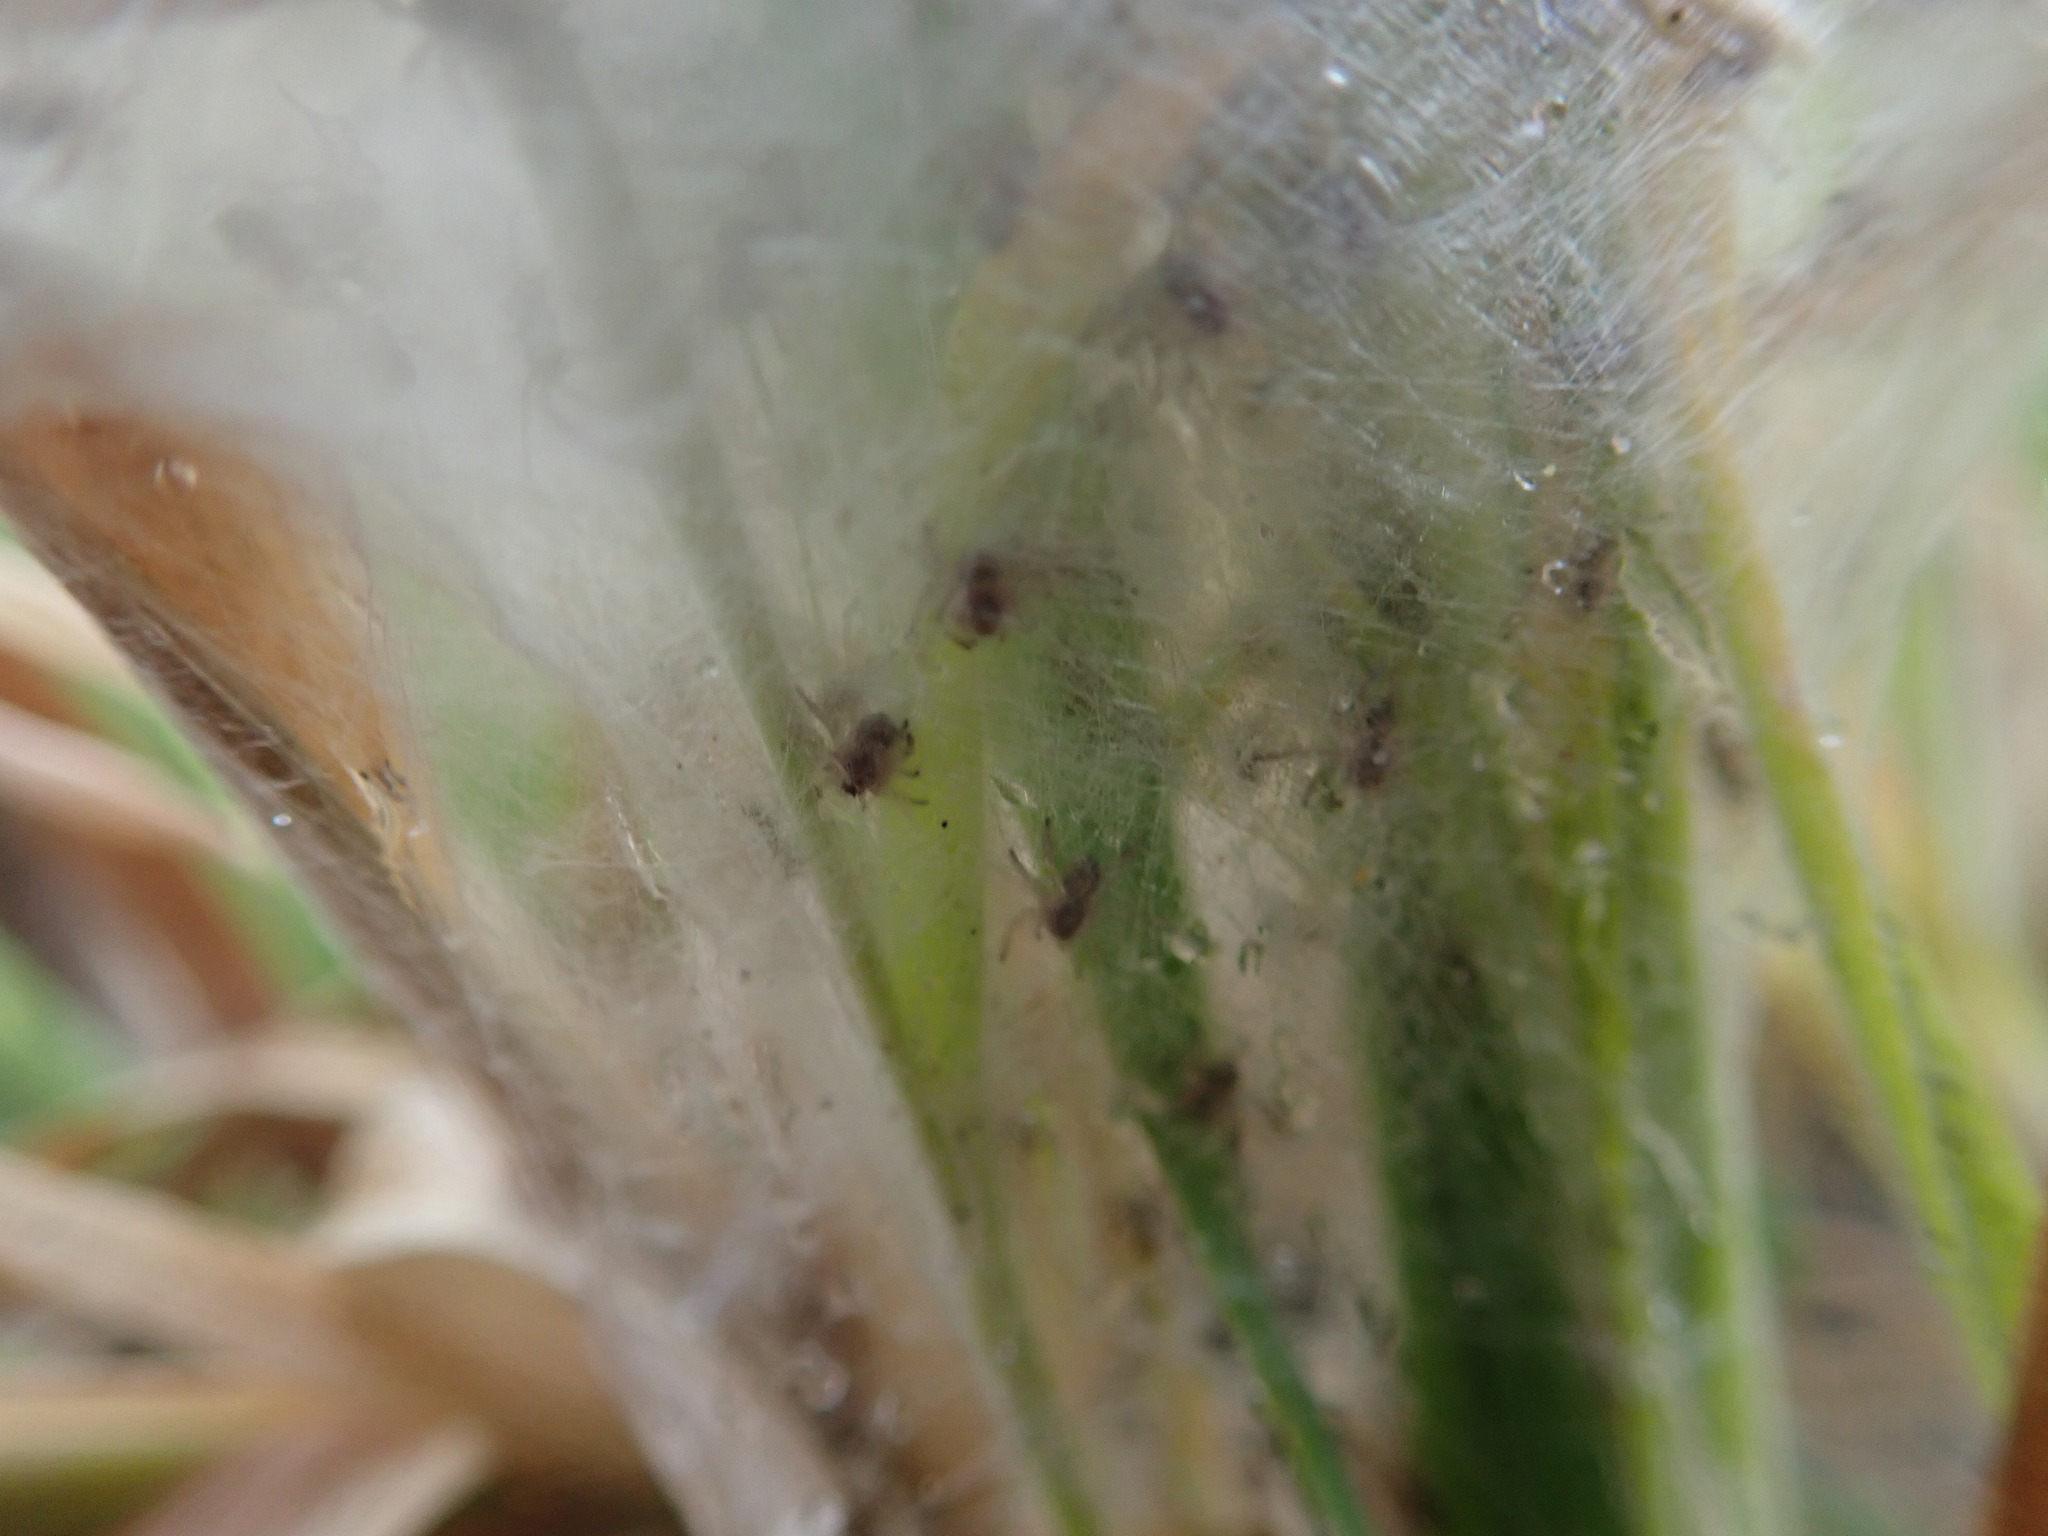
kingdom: Animalia
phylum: Arthropoda
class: Arachnida
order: Araneae
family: Pisauridae
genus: Dolomedes
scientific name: Dolomedes minor
